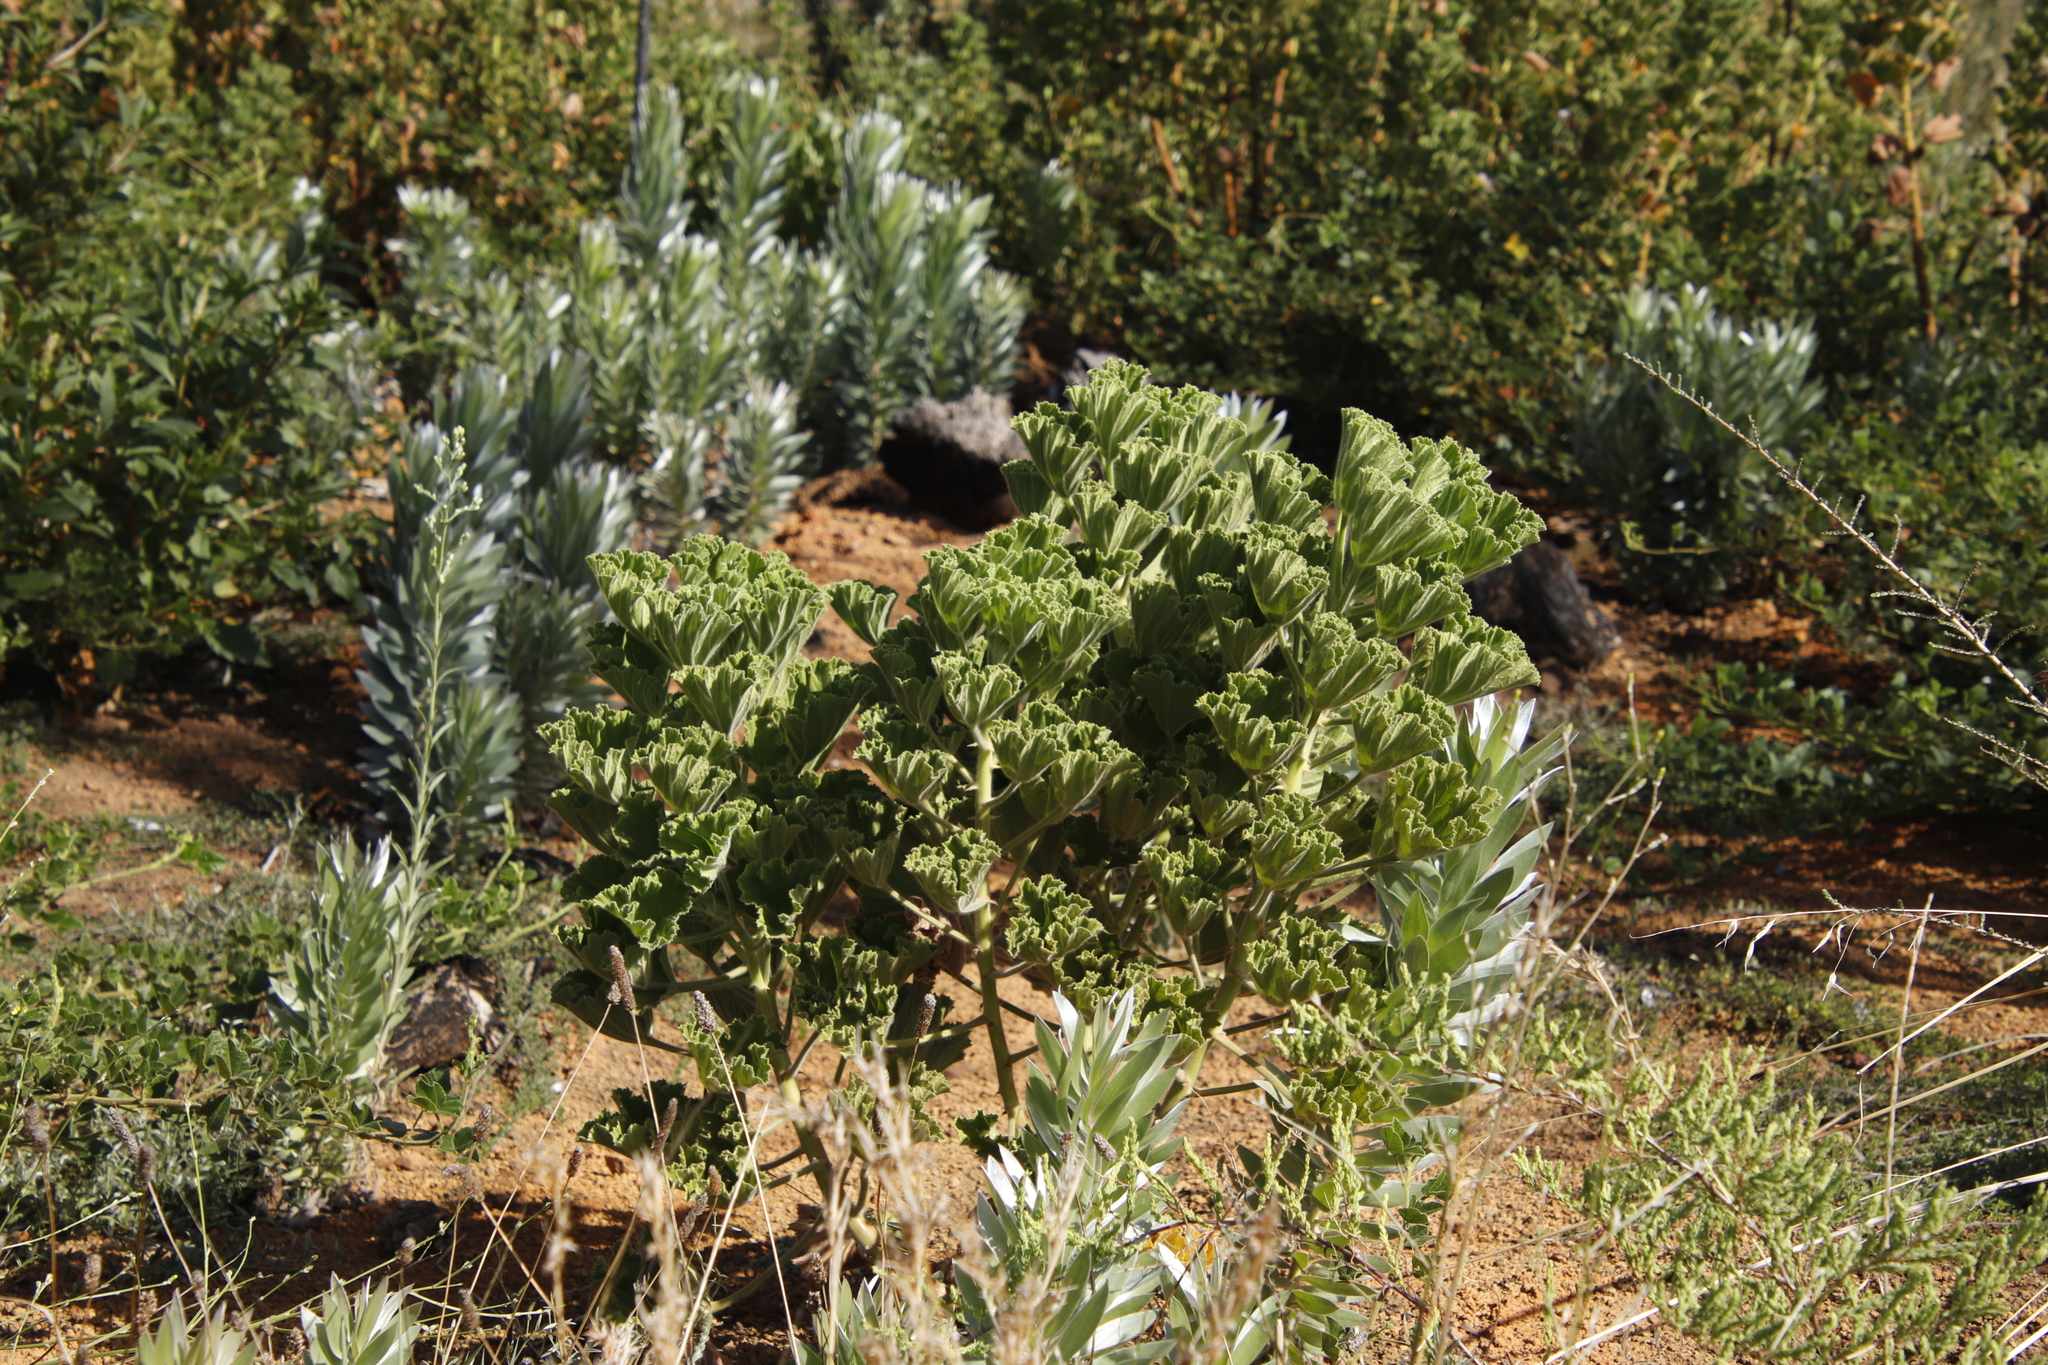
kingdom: Plantae
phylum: Tracheophyta
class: Magnoliopsida
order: Geraniales
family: Geraniaceae
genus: Pelargonium
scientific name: Pelargonium cucullatum
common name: Tree pelargonium
